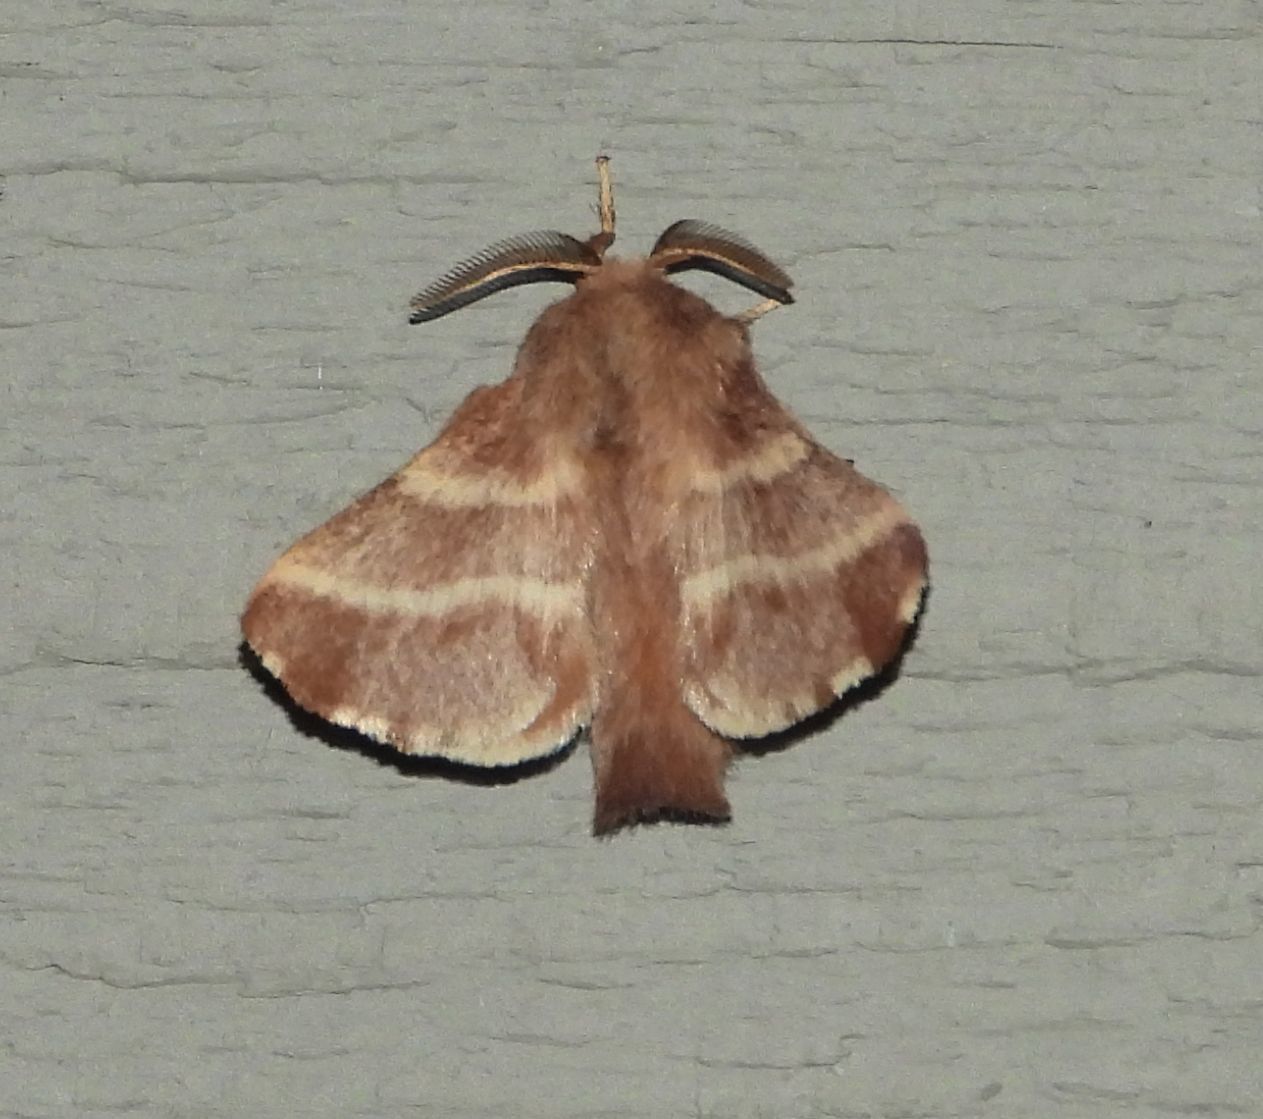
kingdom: Animalia
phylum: Arthropoda
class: Insecta
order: Lepidoptera
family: Lasiocampidae
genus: Malacosoma
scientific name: Malacosoma americana
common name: Eastern tent caterpillar moth
